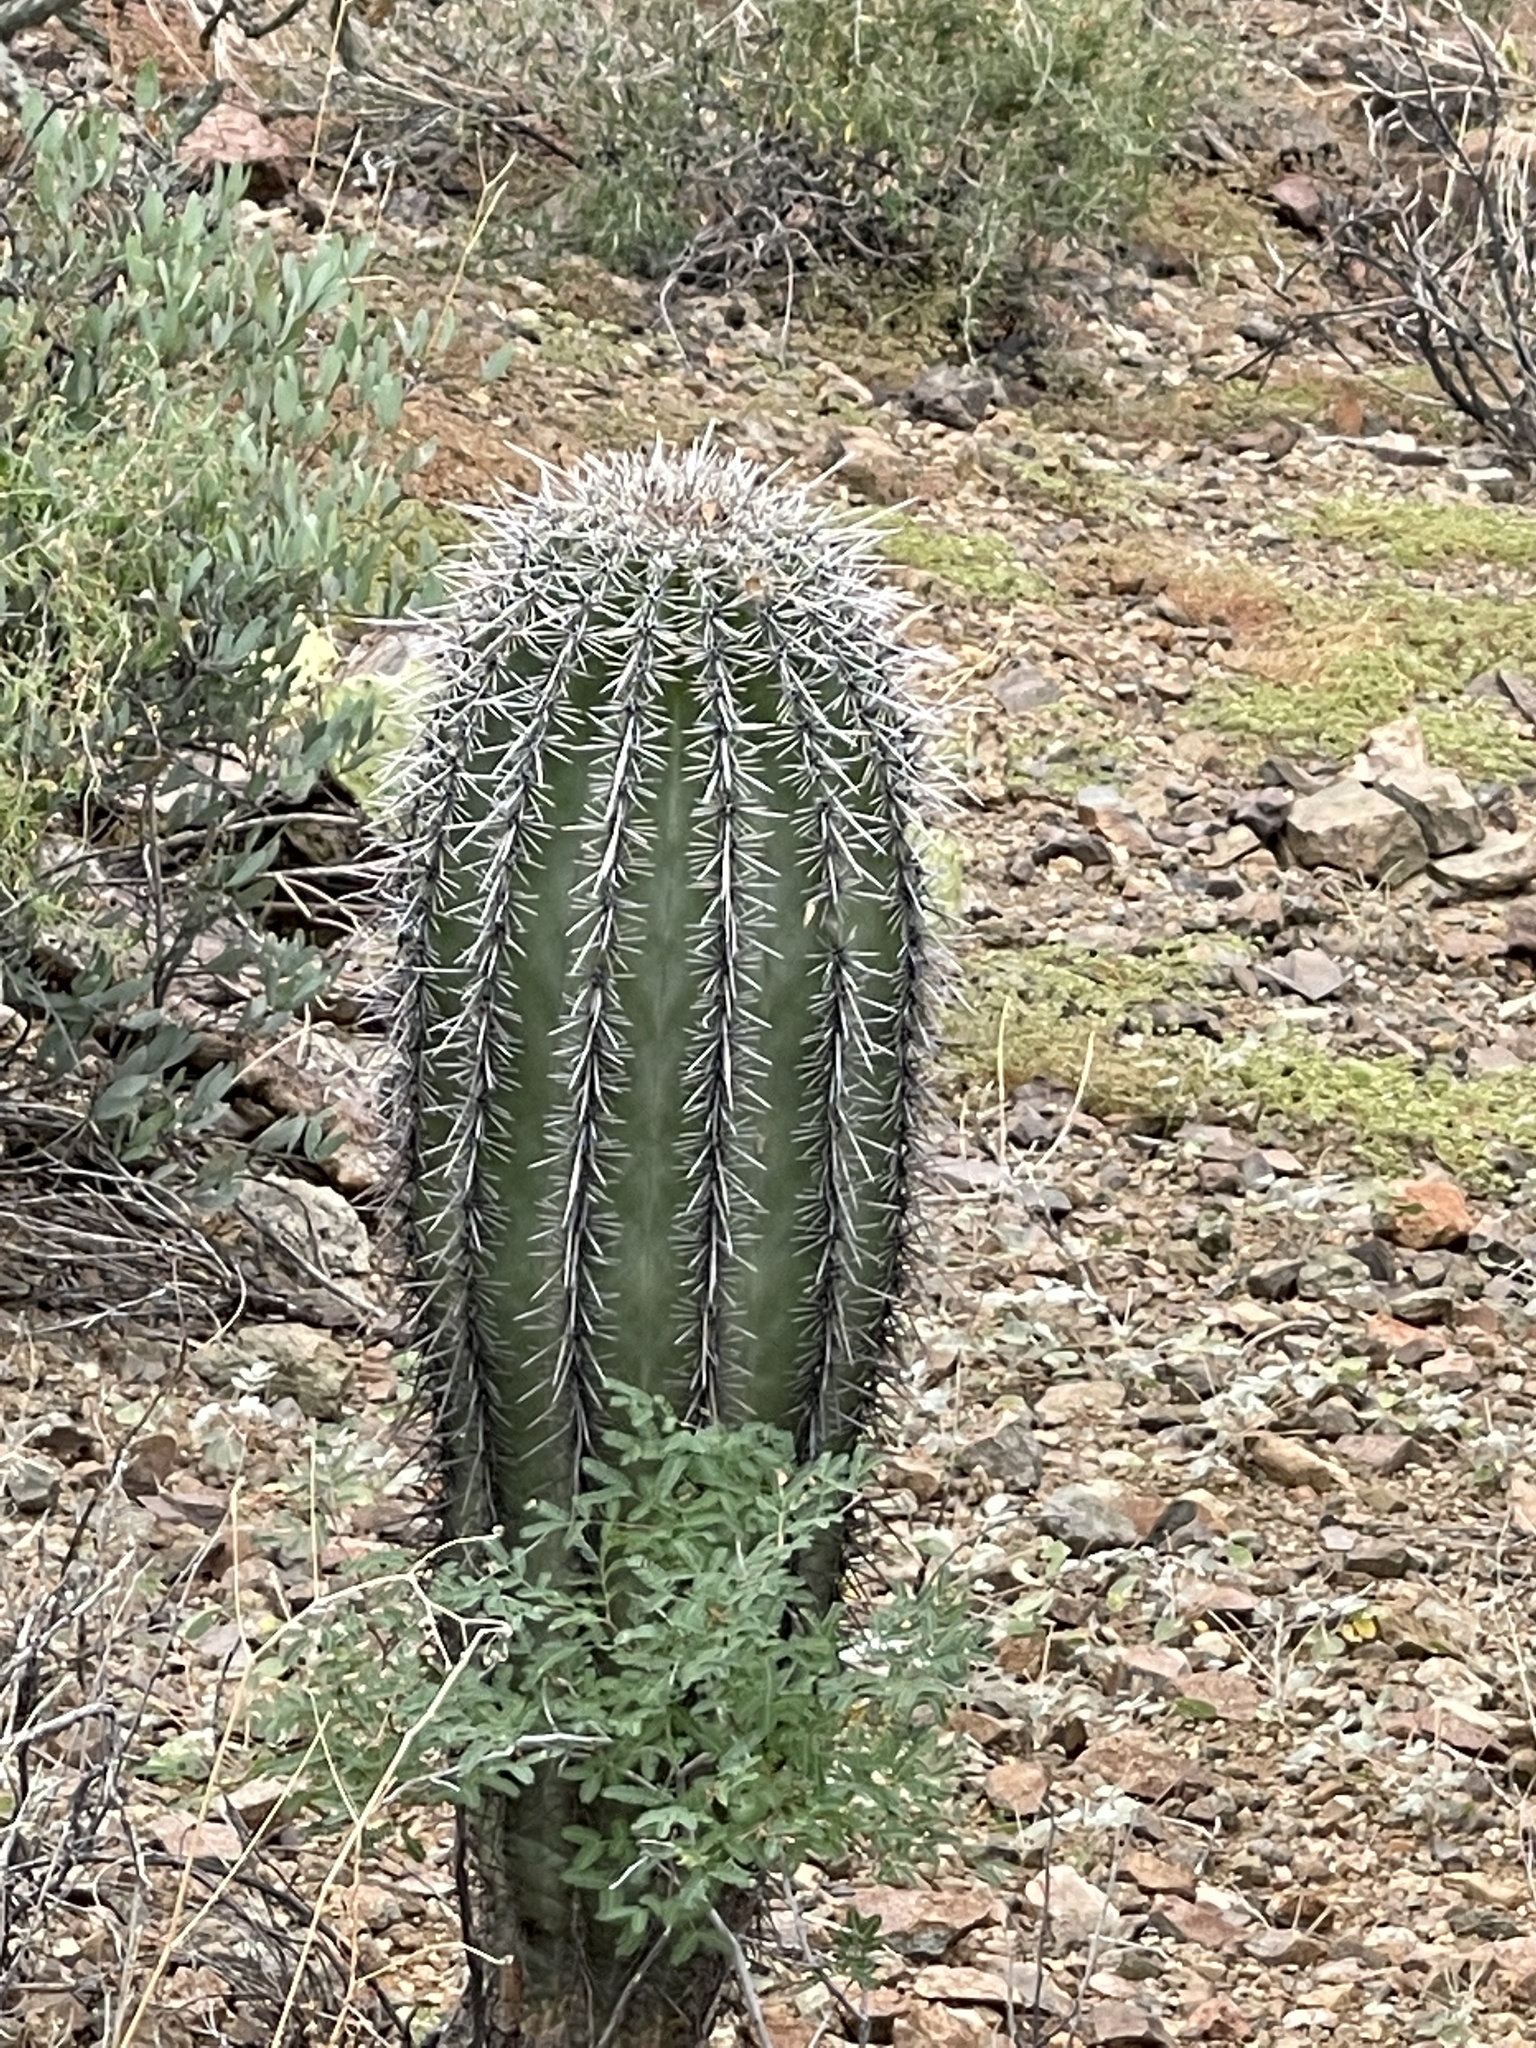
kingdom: Plantae
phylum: Tracheophyta
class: Magnoliopsida
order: Caryophyllales
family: Cactaceae
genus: Carnegiea
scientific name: Carnegiea gigantea
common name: Saguaro
